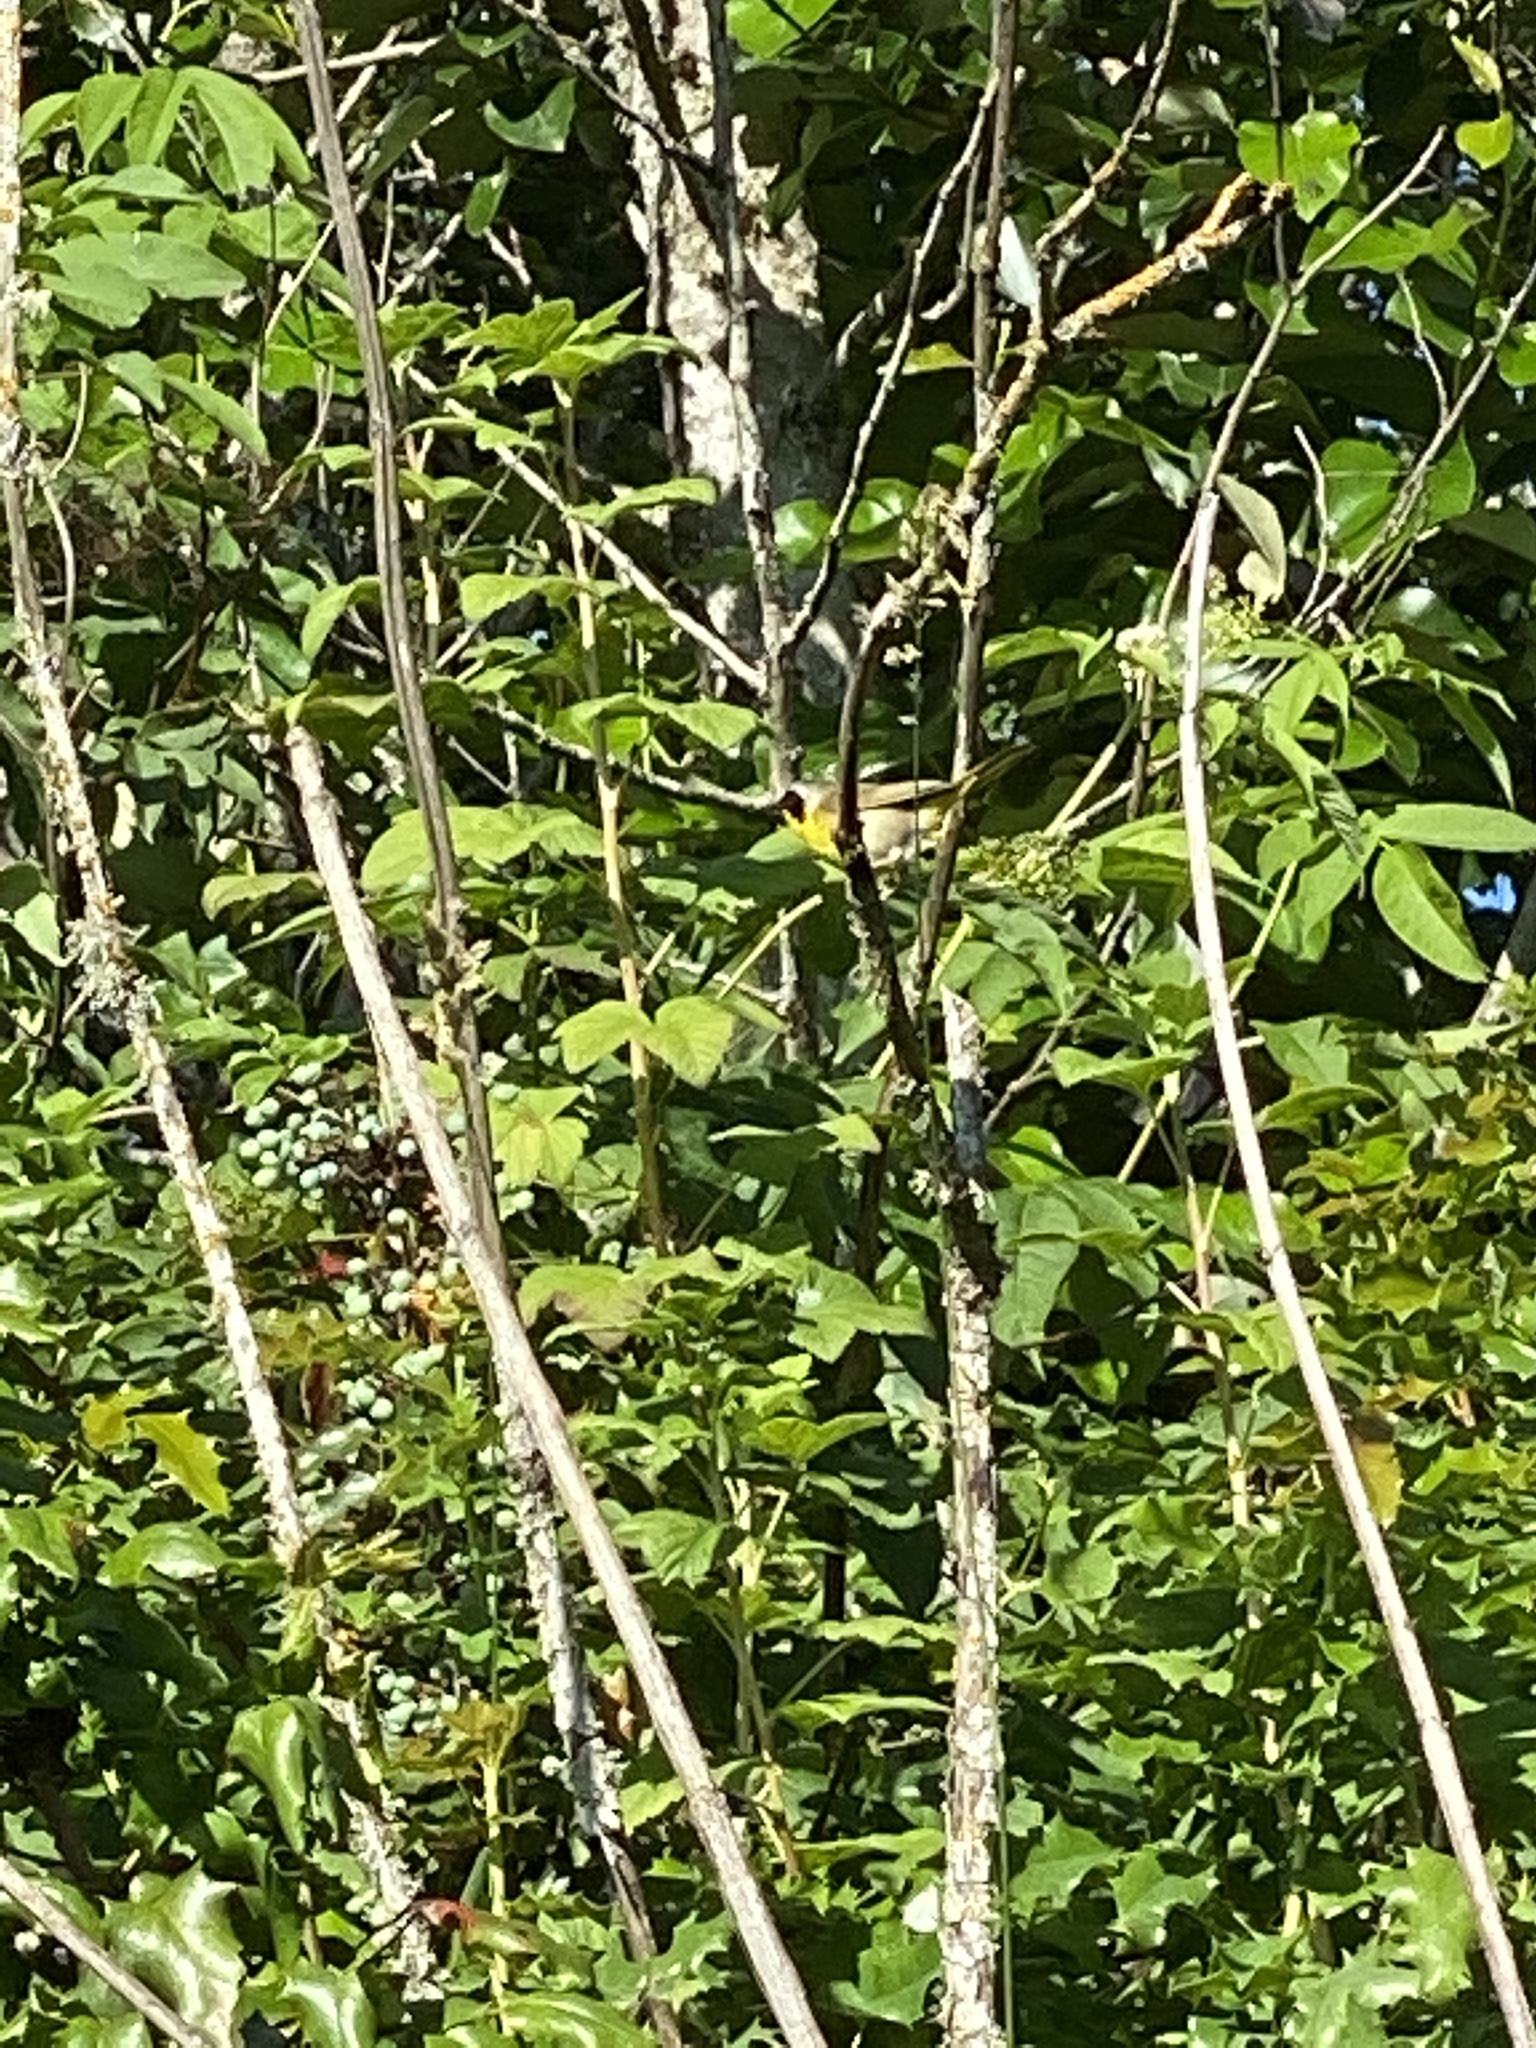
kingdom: Animalia
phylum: Chordata
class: Aves
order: Passeriformes
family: Parulidae
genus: Geothlypis
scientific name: Geothlypis trichas
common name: Common yellowthroat
